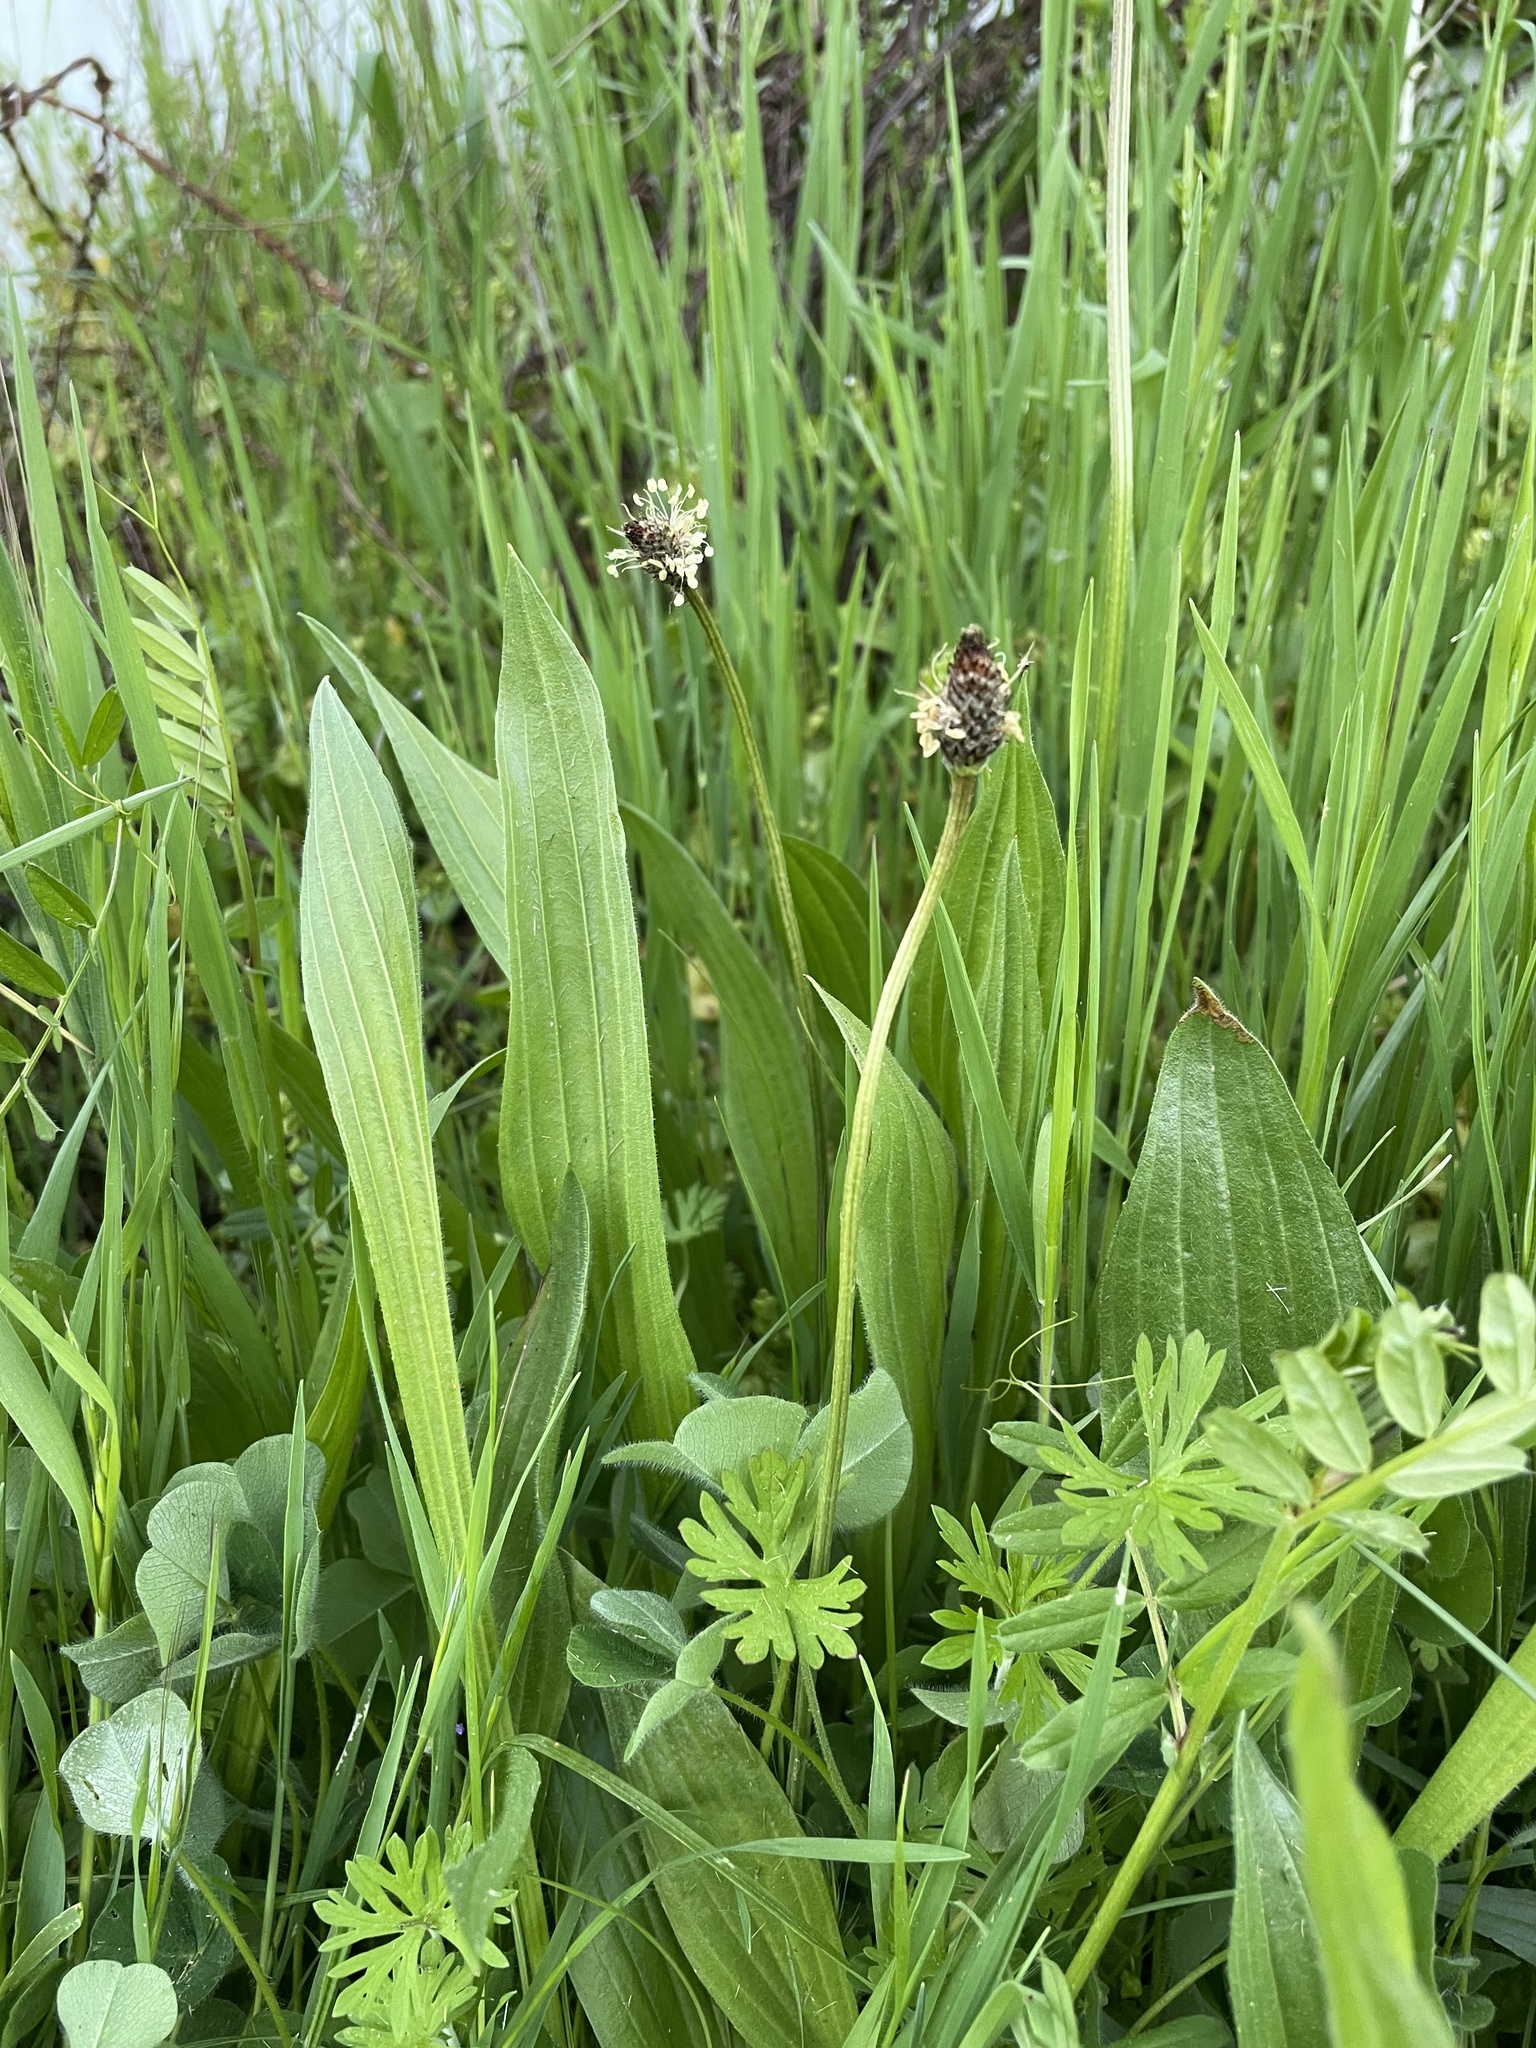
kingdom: Plantae
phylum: Tracheophyta
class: Magnoliopsida
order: Lamiales
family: Plantaginaceae
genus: Plantago
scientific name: Plantago lanceolata
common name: Ribwort plantain
